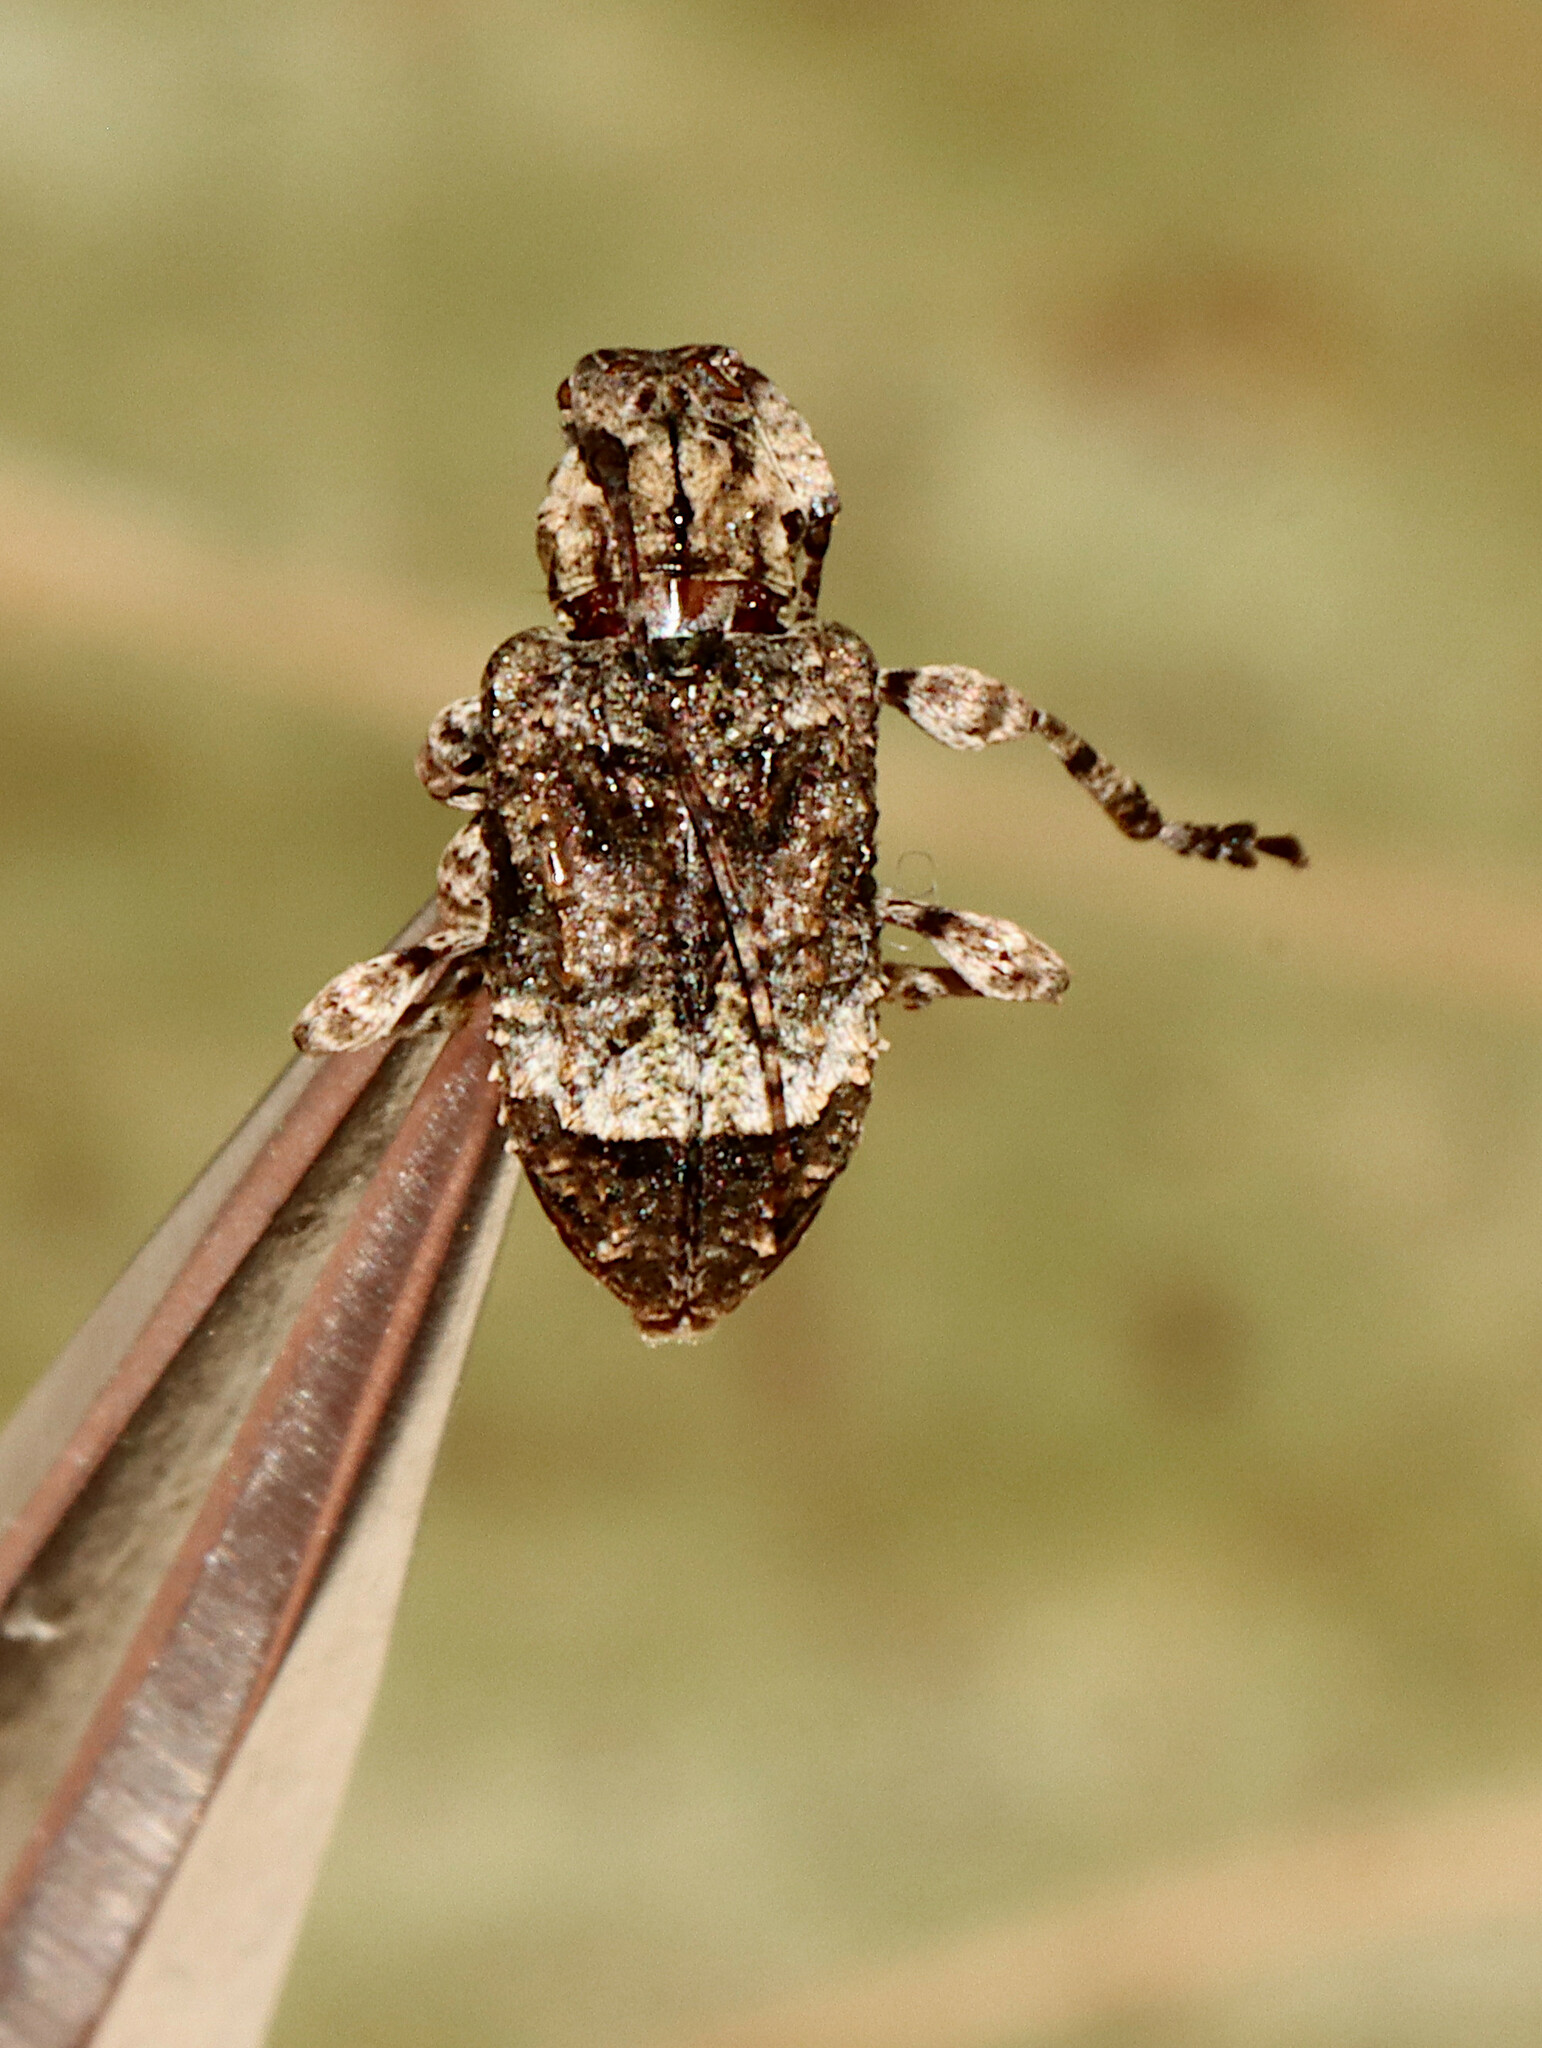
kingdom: Animalia
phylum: Arthropoda
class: Insecta
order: Coleoptera
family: Cerambycidae
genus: Leptostylus
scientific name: Leptostylus transversus
